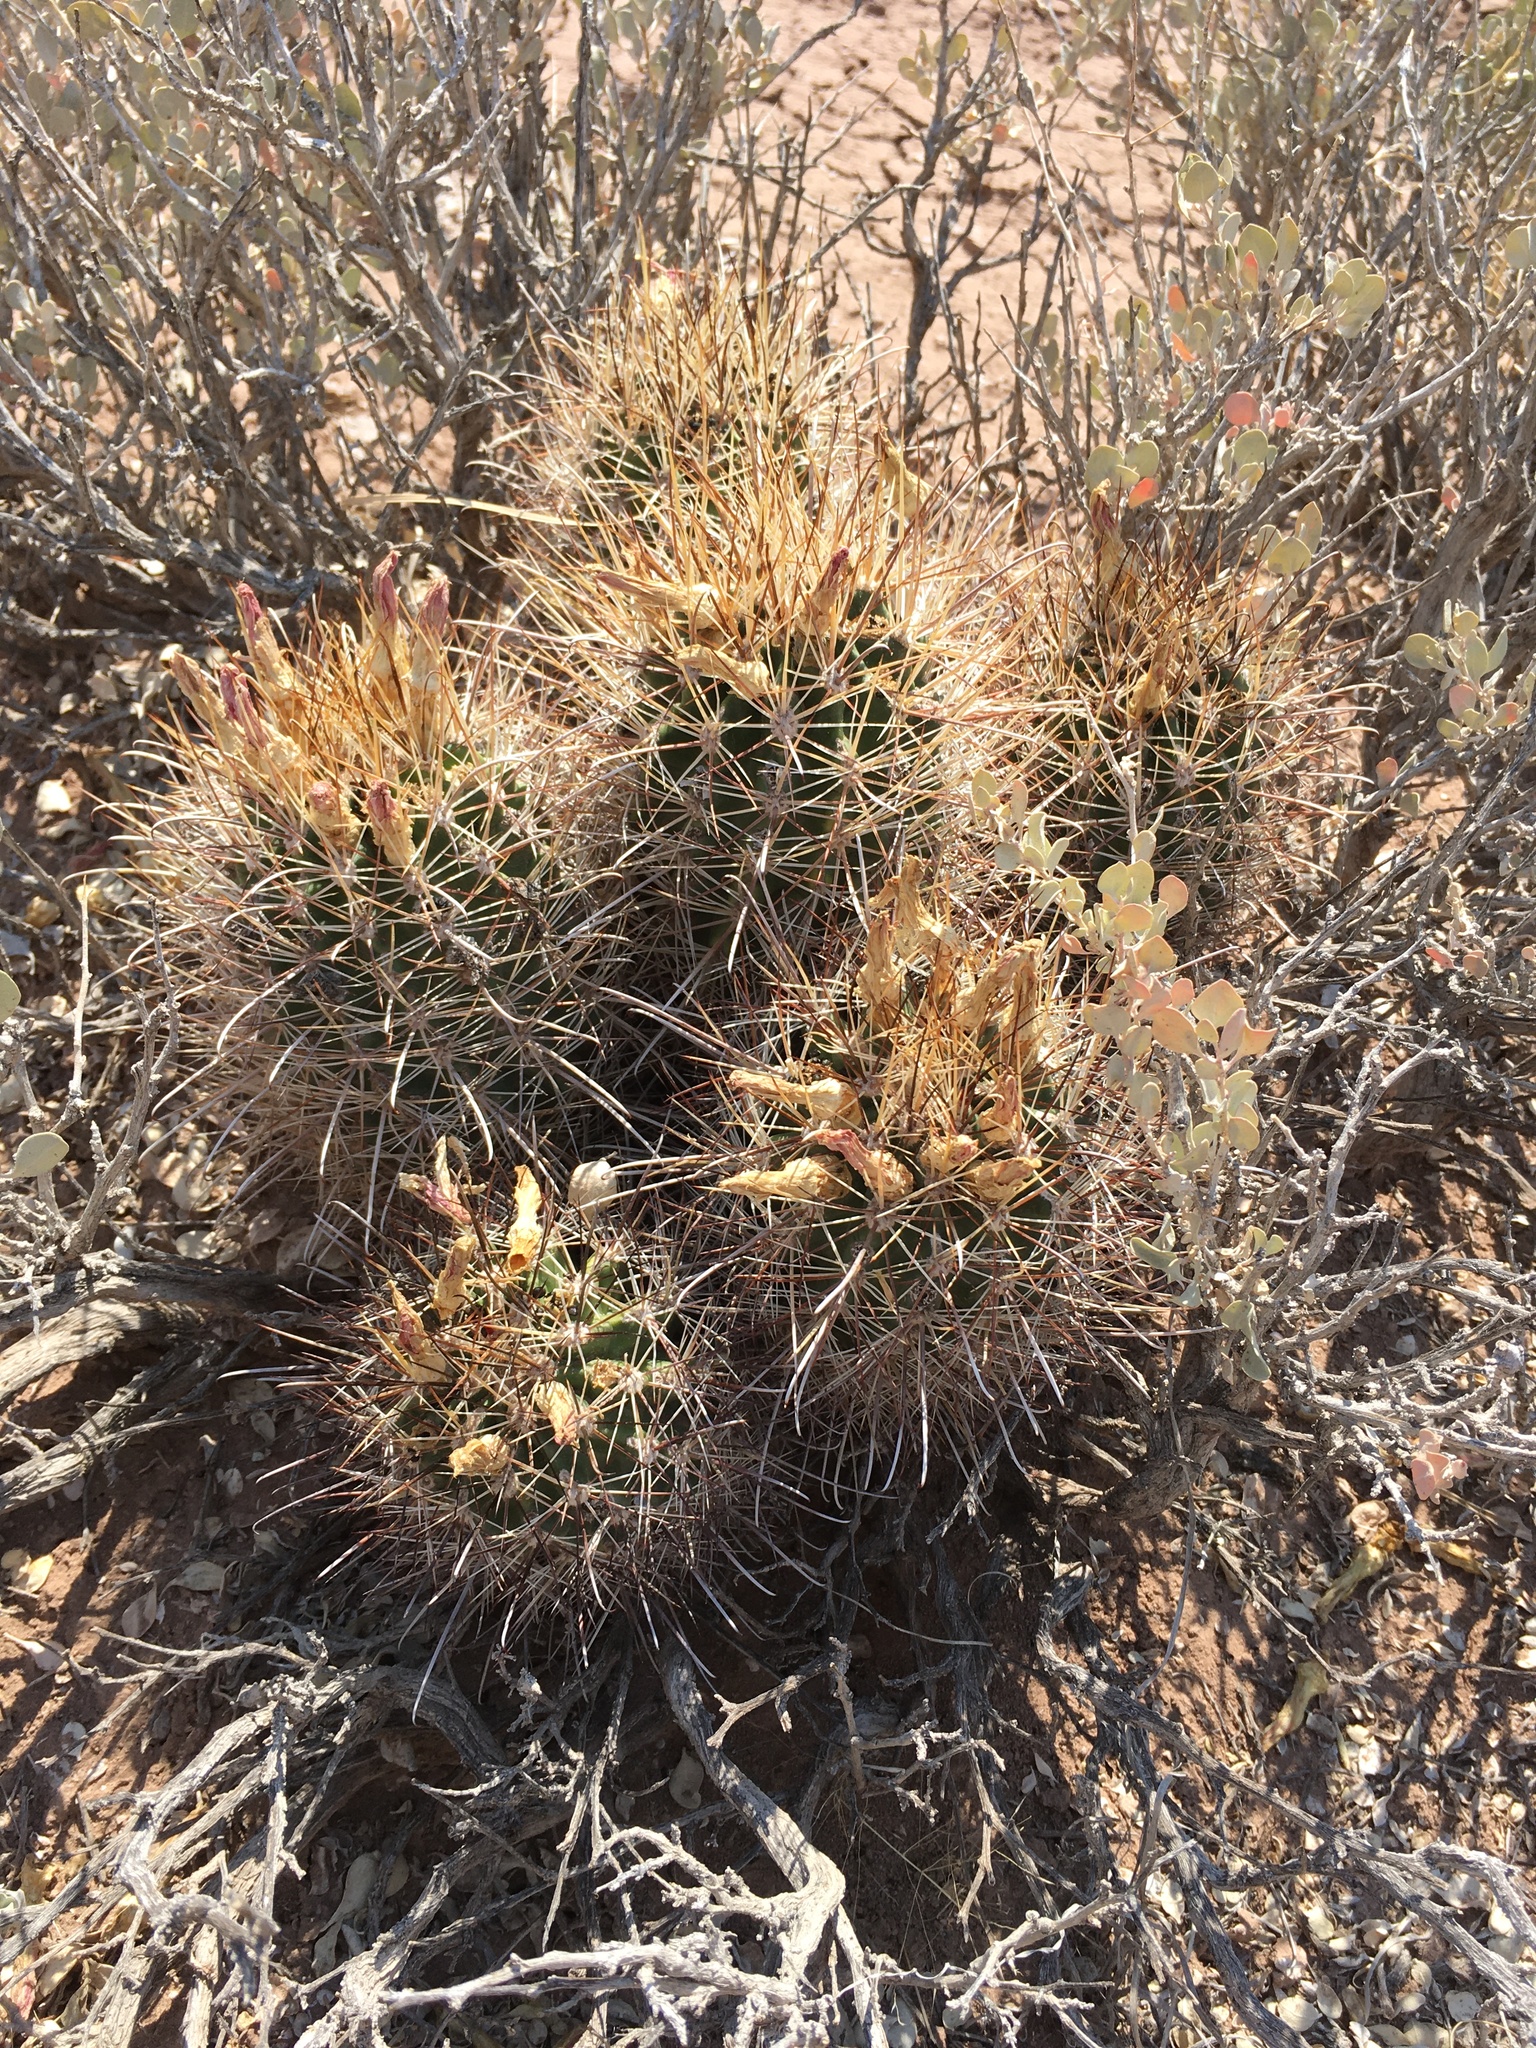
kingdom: Plantae
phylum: Tracheophyta
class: Magnoliopsida
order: Caryophyllales
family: Cactaceae
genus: Sclerocactus
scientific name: Sclerocactus parviflorus
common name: Small-flower fishhook cactus
